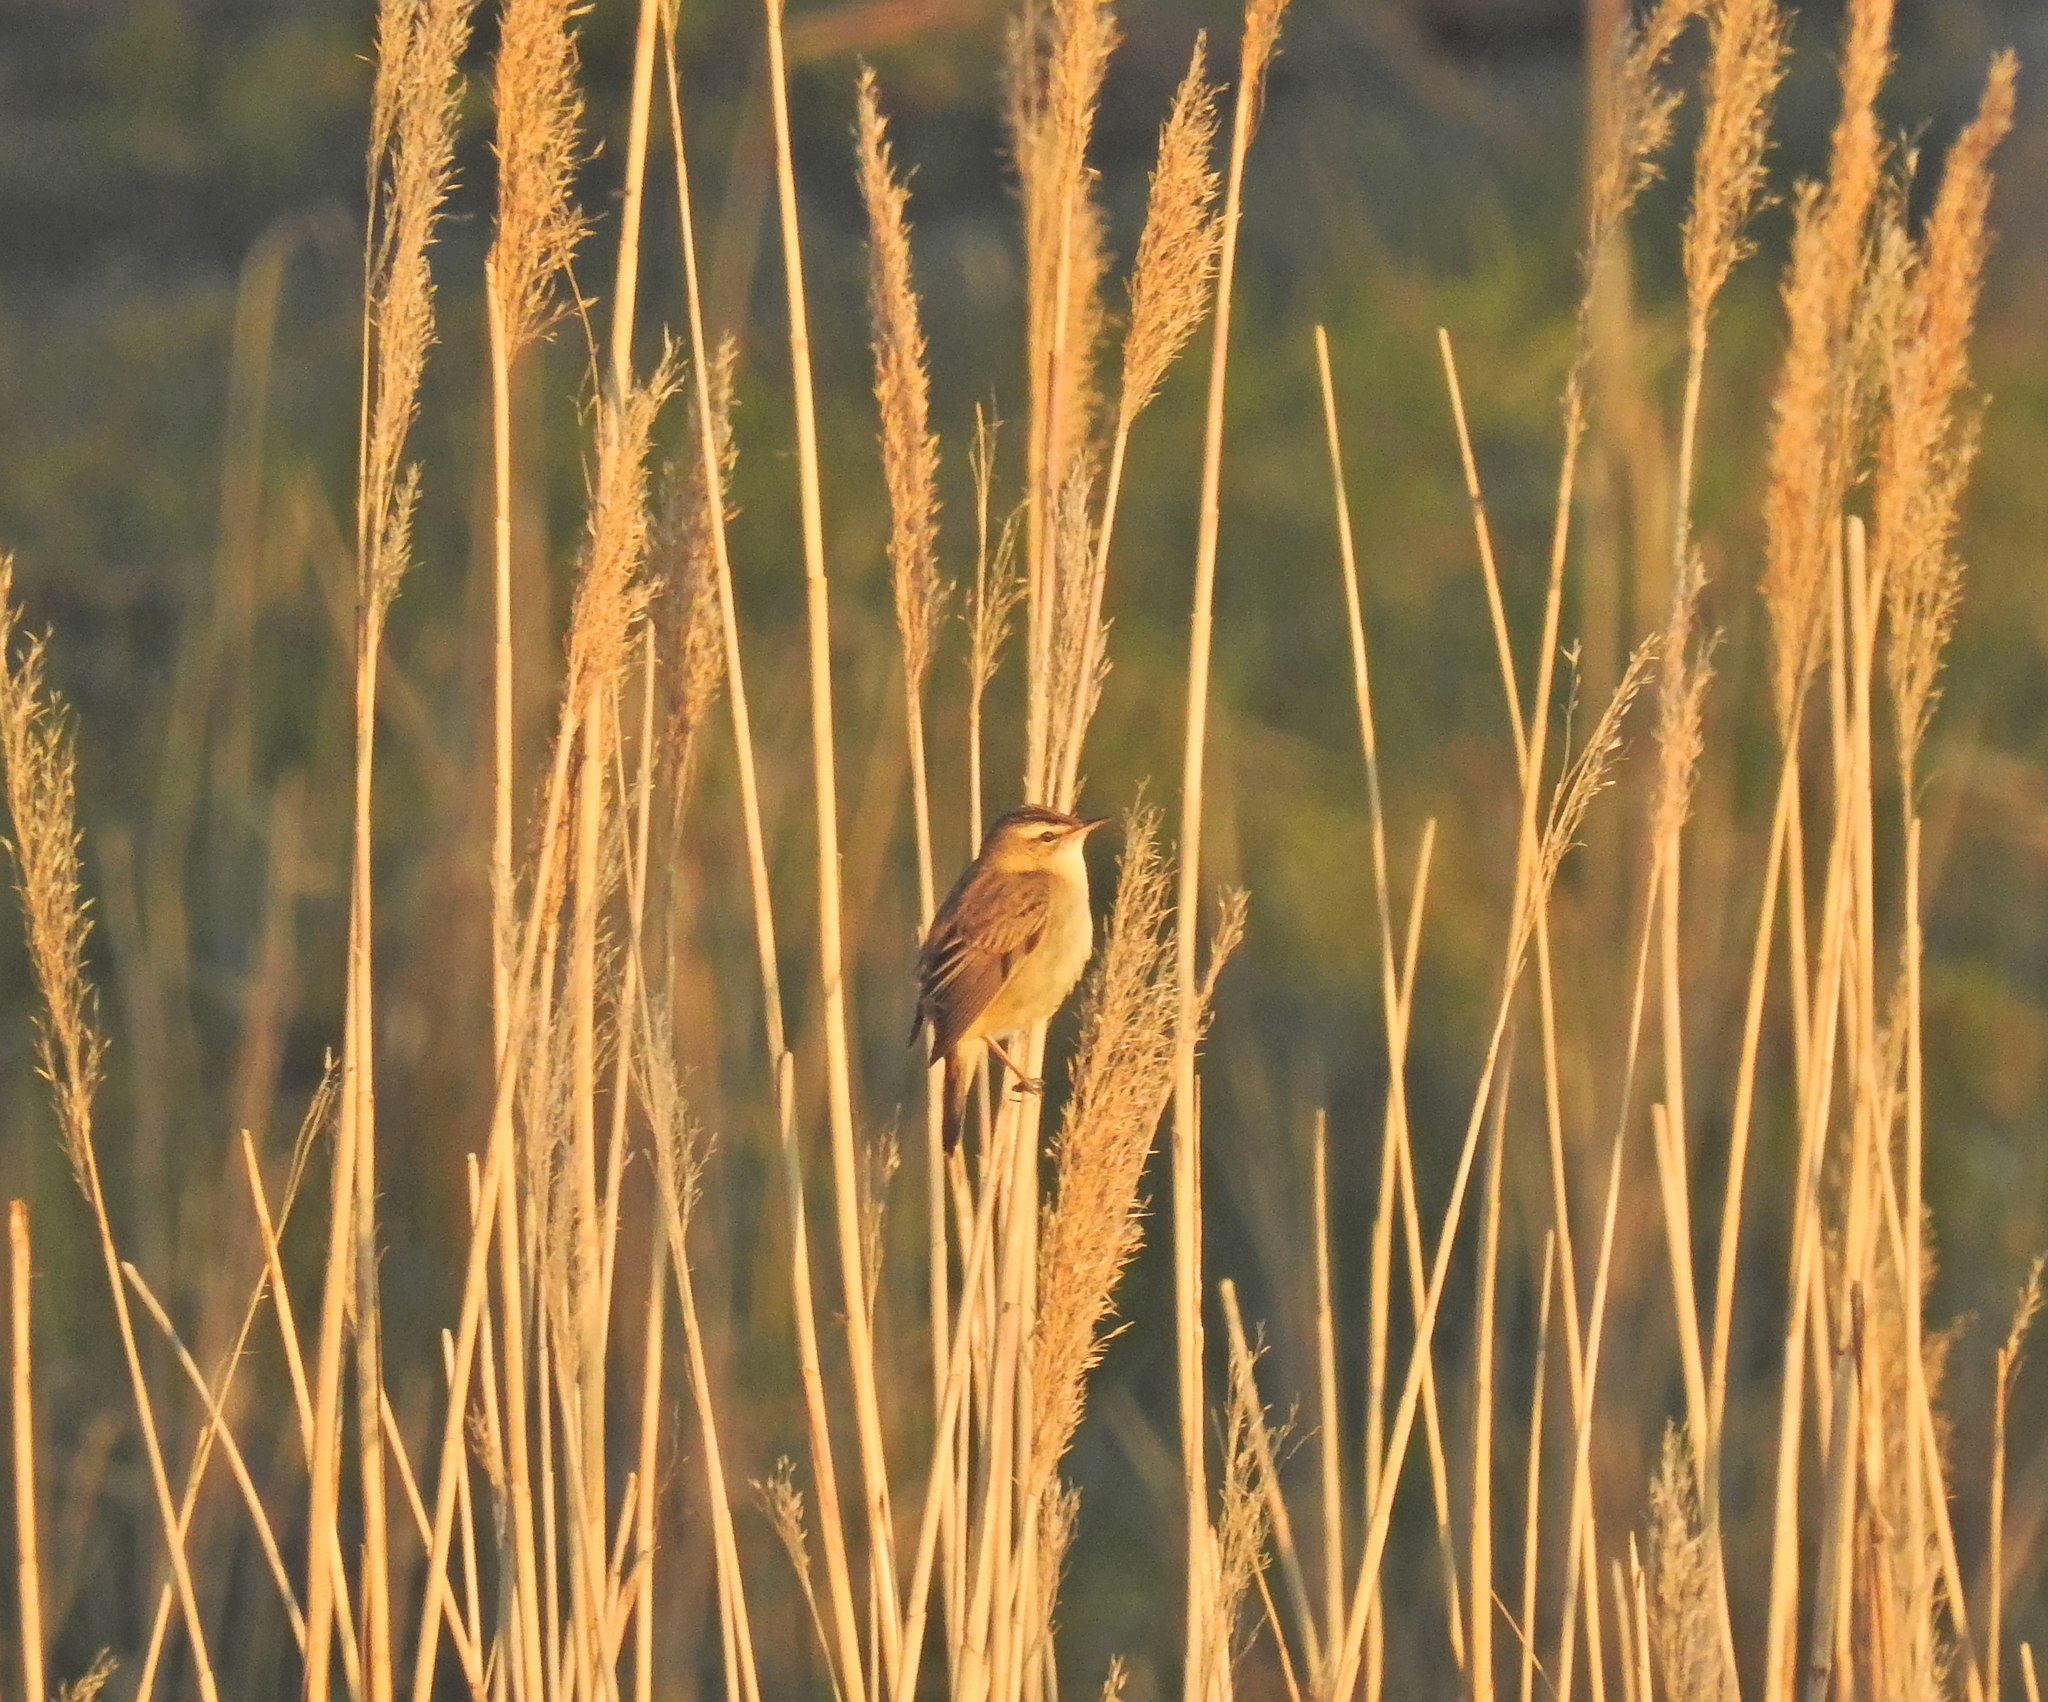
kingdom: Animalia
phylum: Chordata
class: Aves
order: Passeriformes
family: Acrocephalidae
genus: Acrocephalus
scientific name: Acrocephalus schoenobaenus
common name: Sedge warbler
